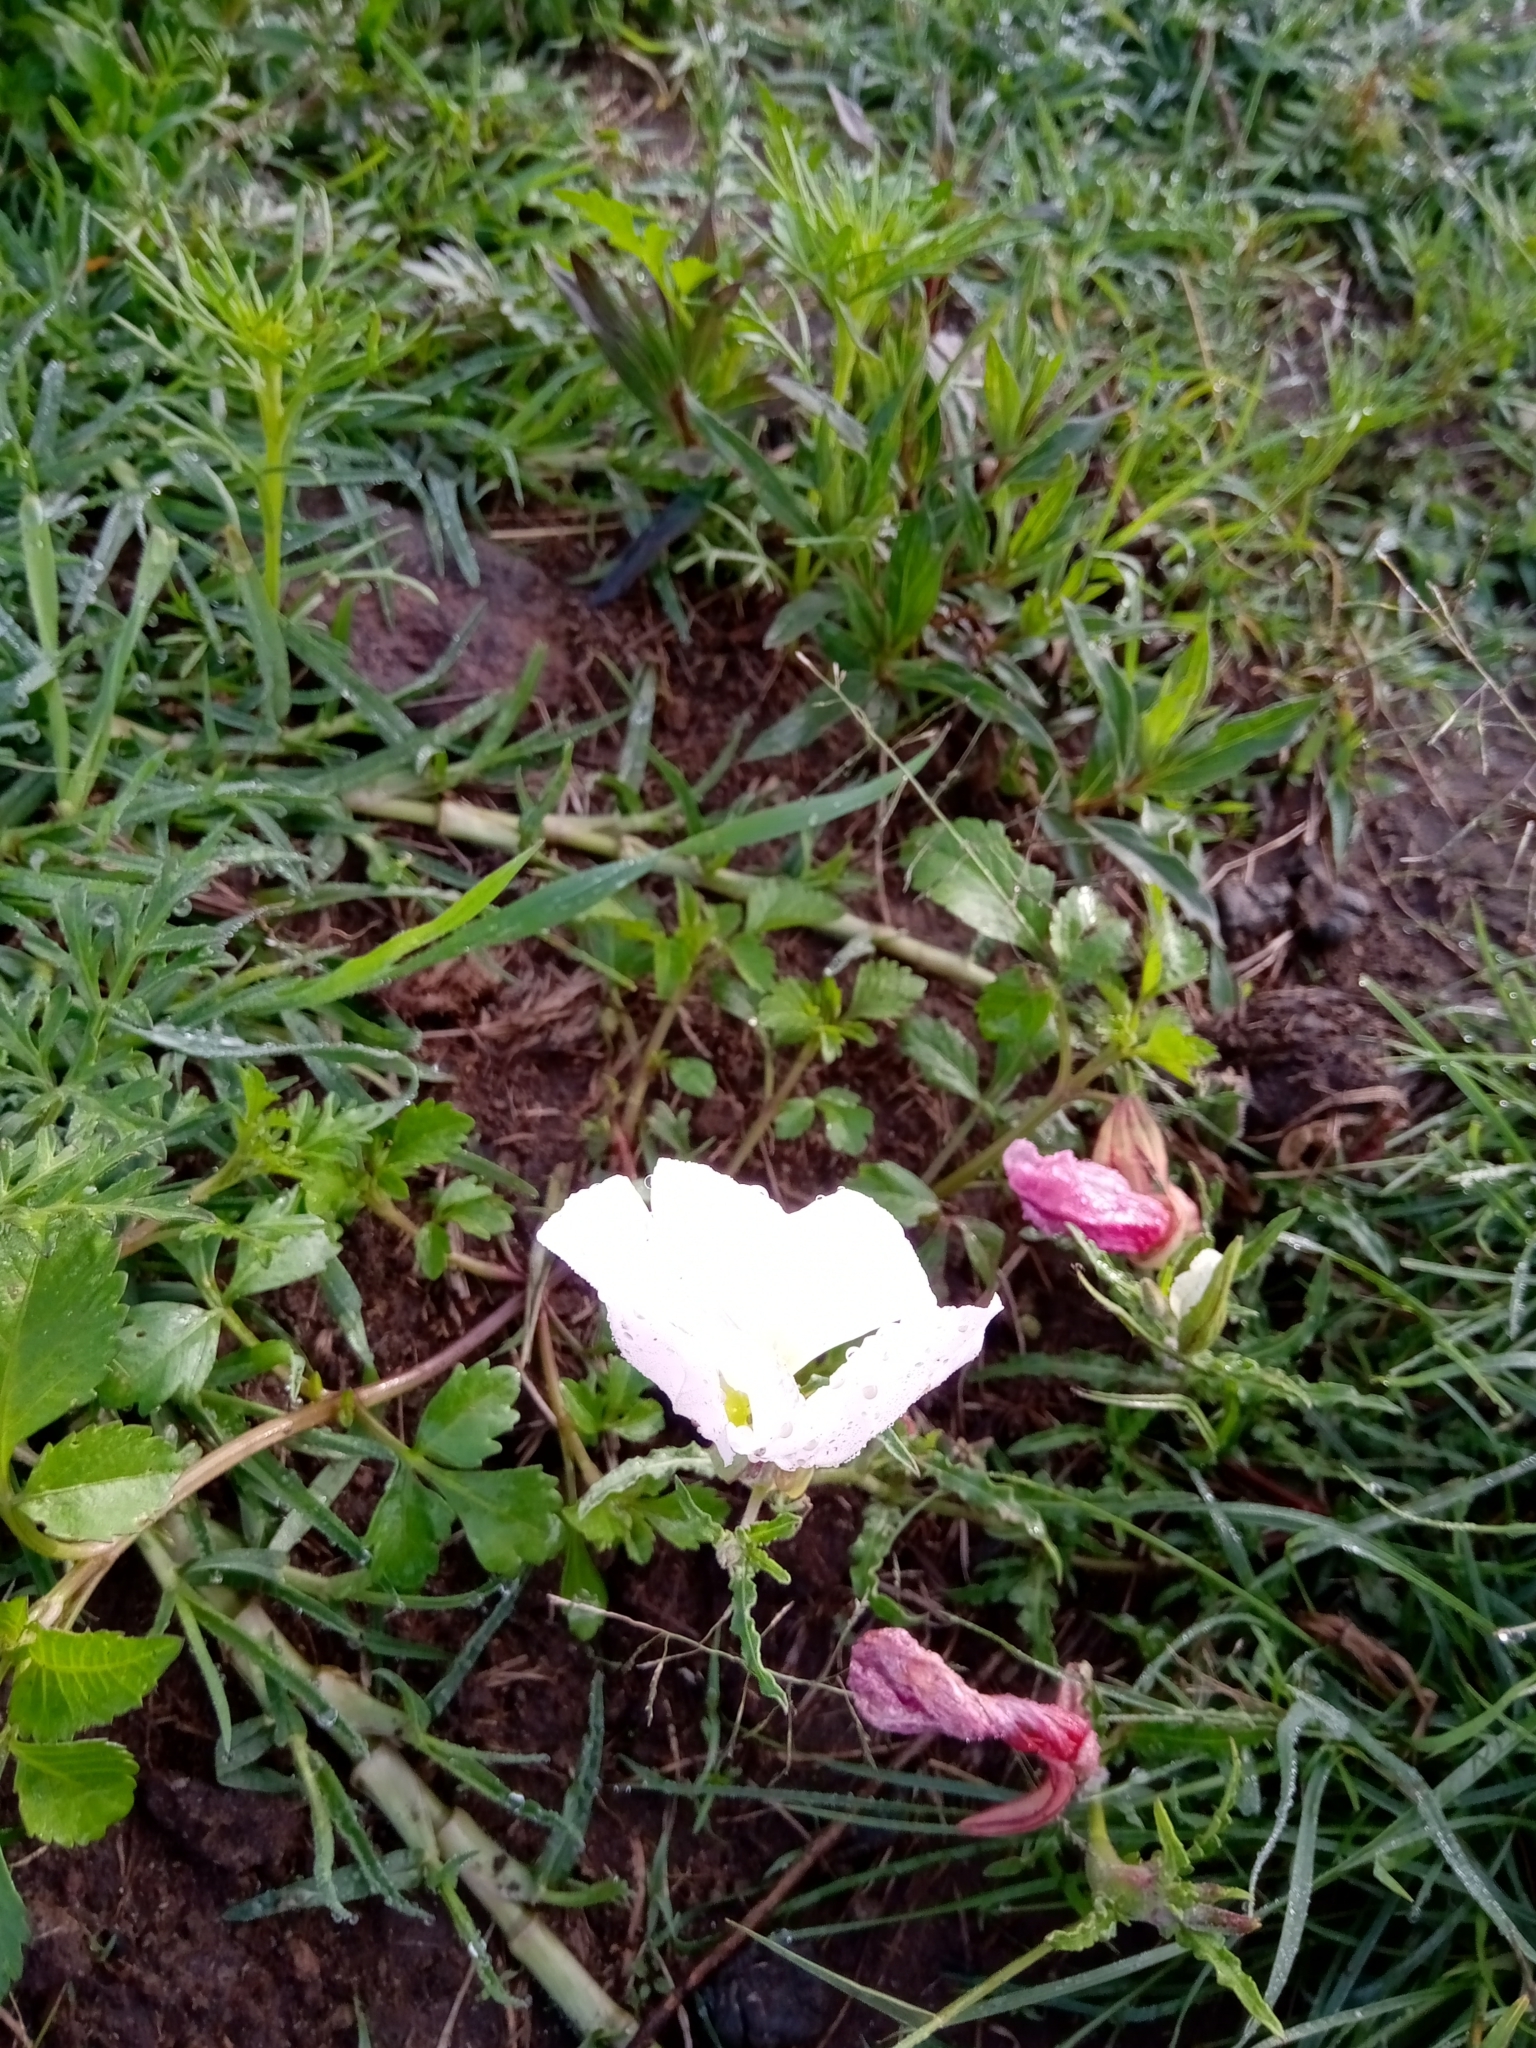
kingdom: Plantae
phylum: Tracheophyta
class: Magnoliopsida
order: Myrtales
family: Onagraceae
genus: Oenothera
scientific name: Oenothera speciosa
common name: White evening-primrose
